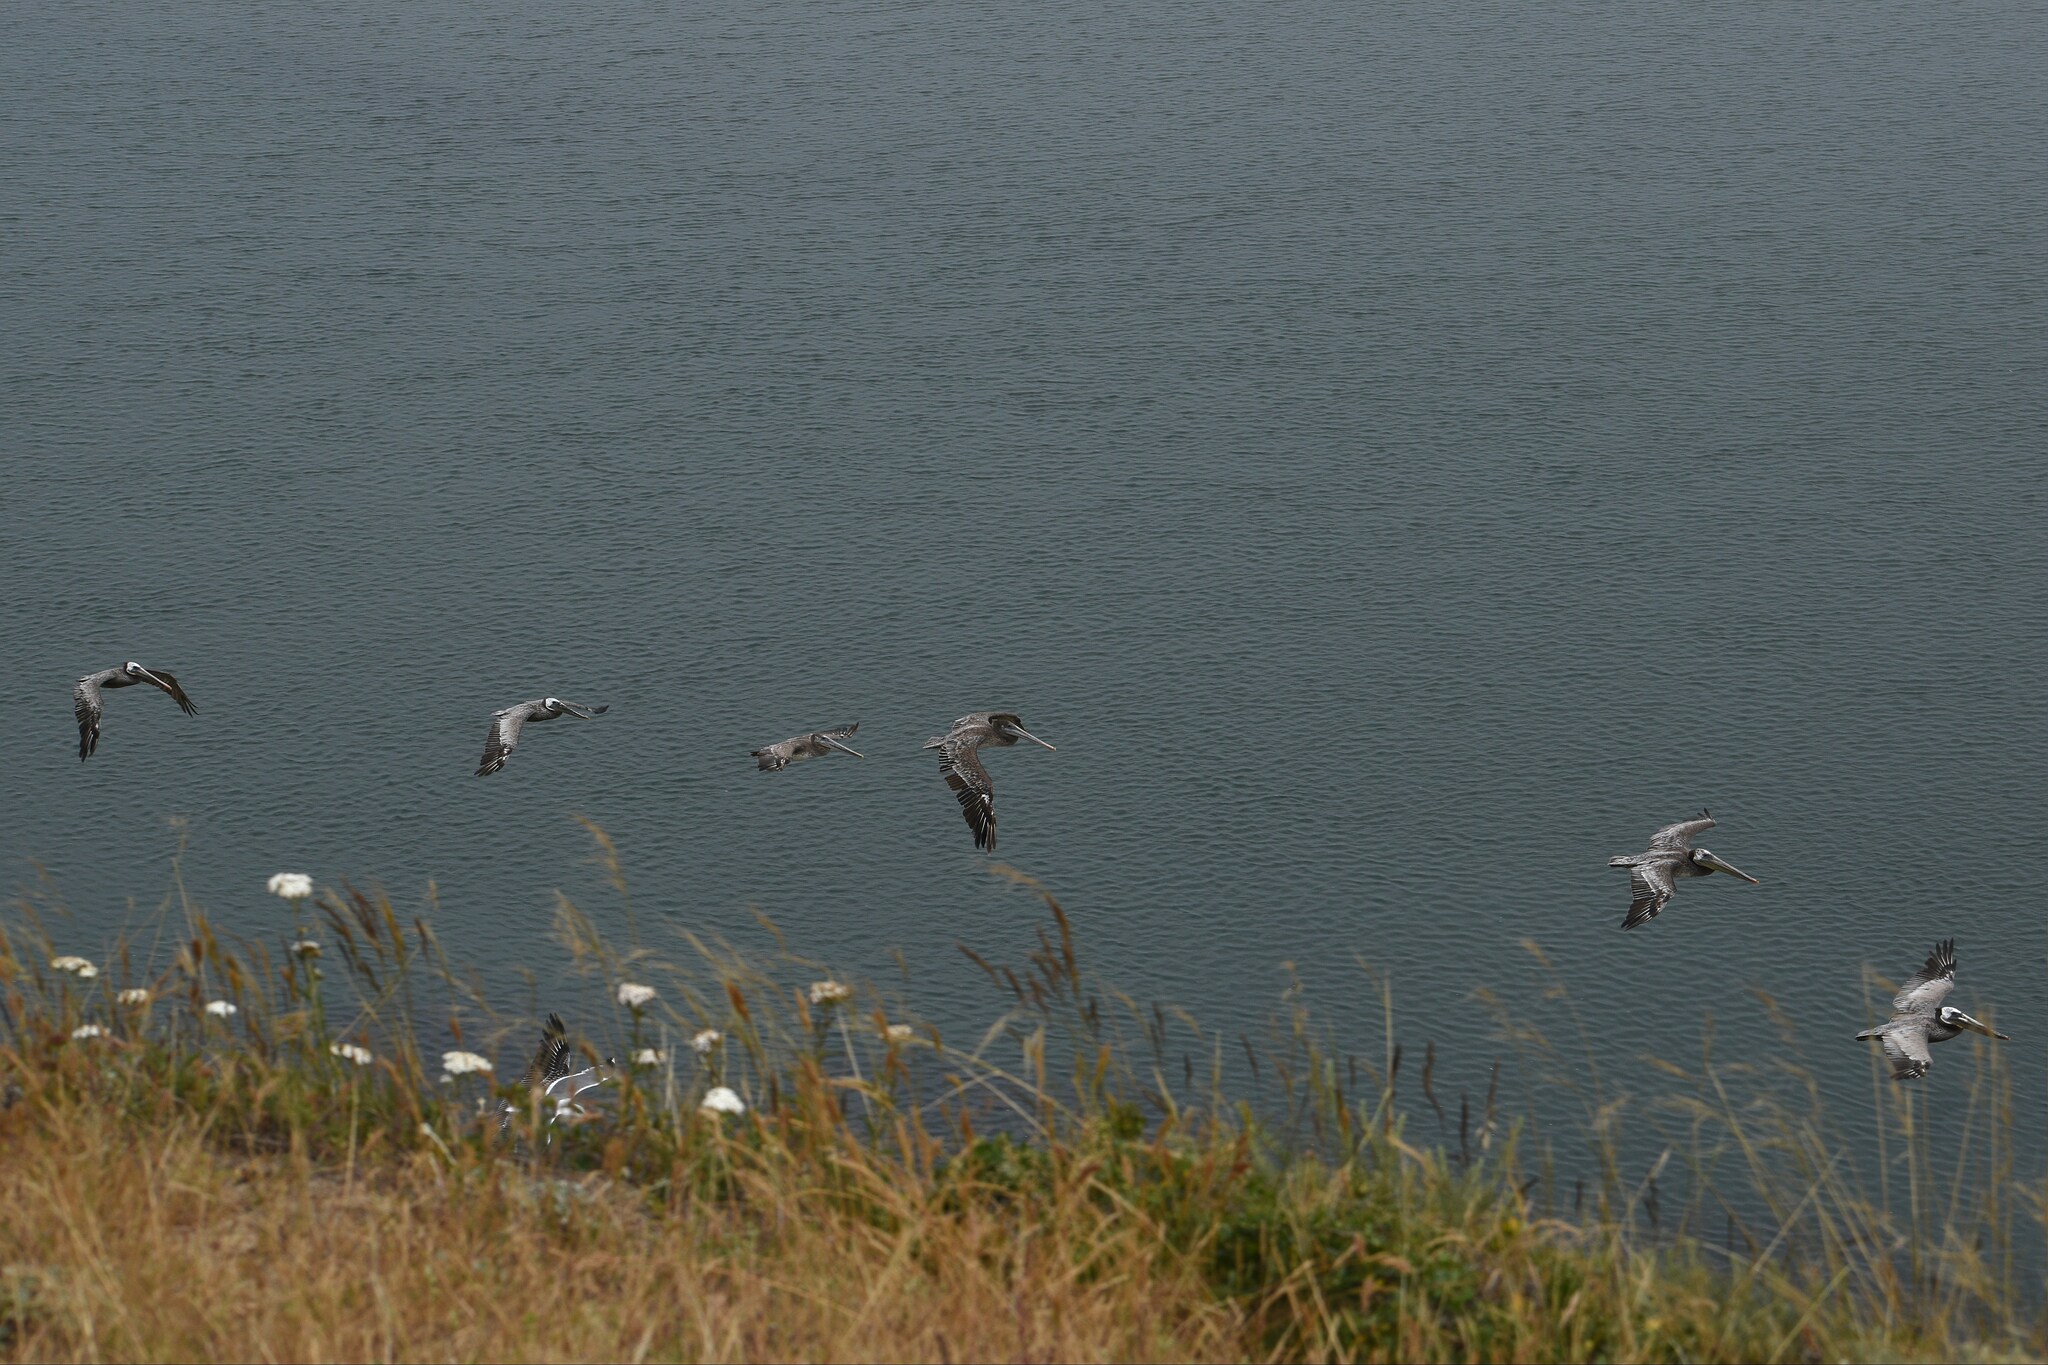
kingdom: Animalia
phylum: Chordata
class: Aves
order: Pelecaniformes
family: Pelecanidae
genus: Pelecanus
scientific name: Pelecanus occidentalis
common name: Brown pelican
